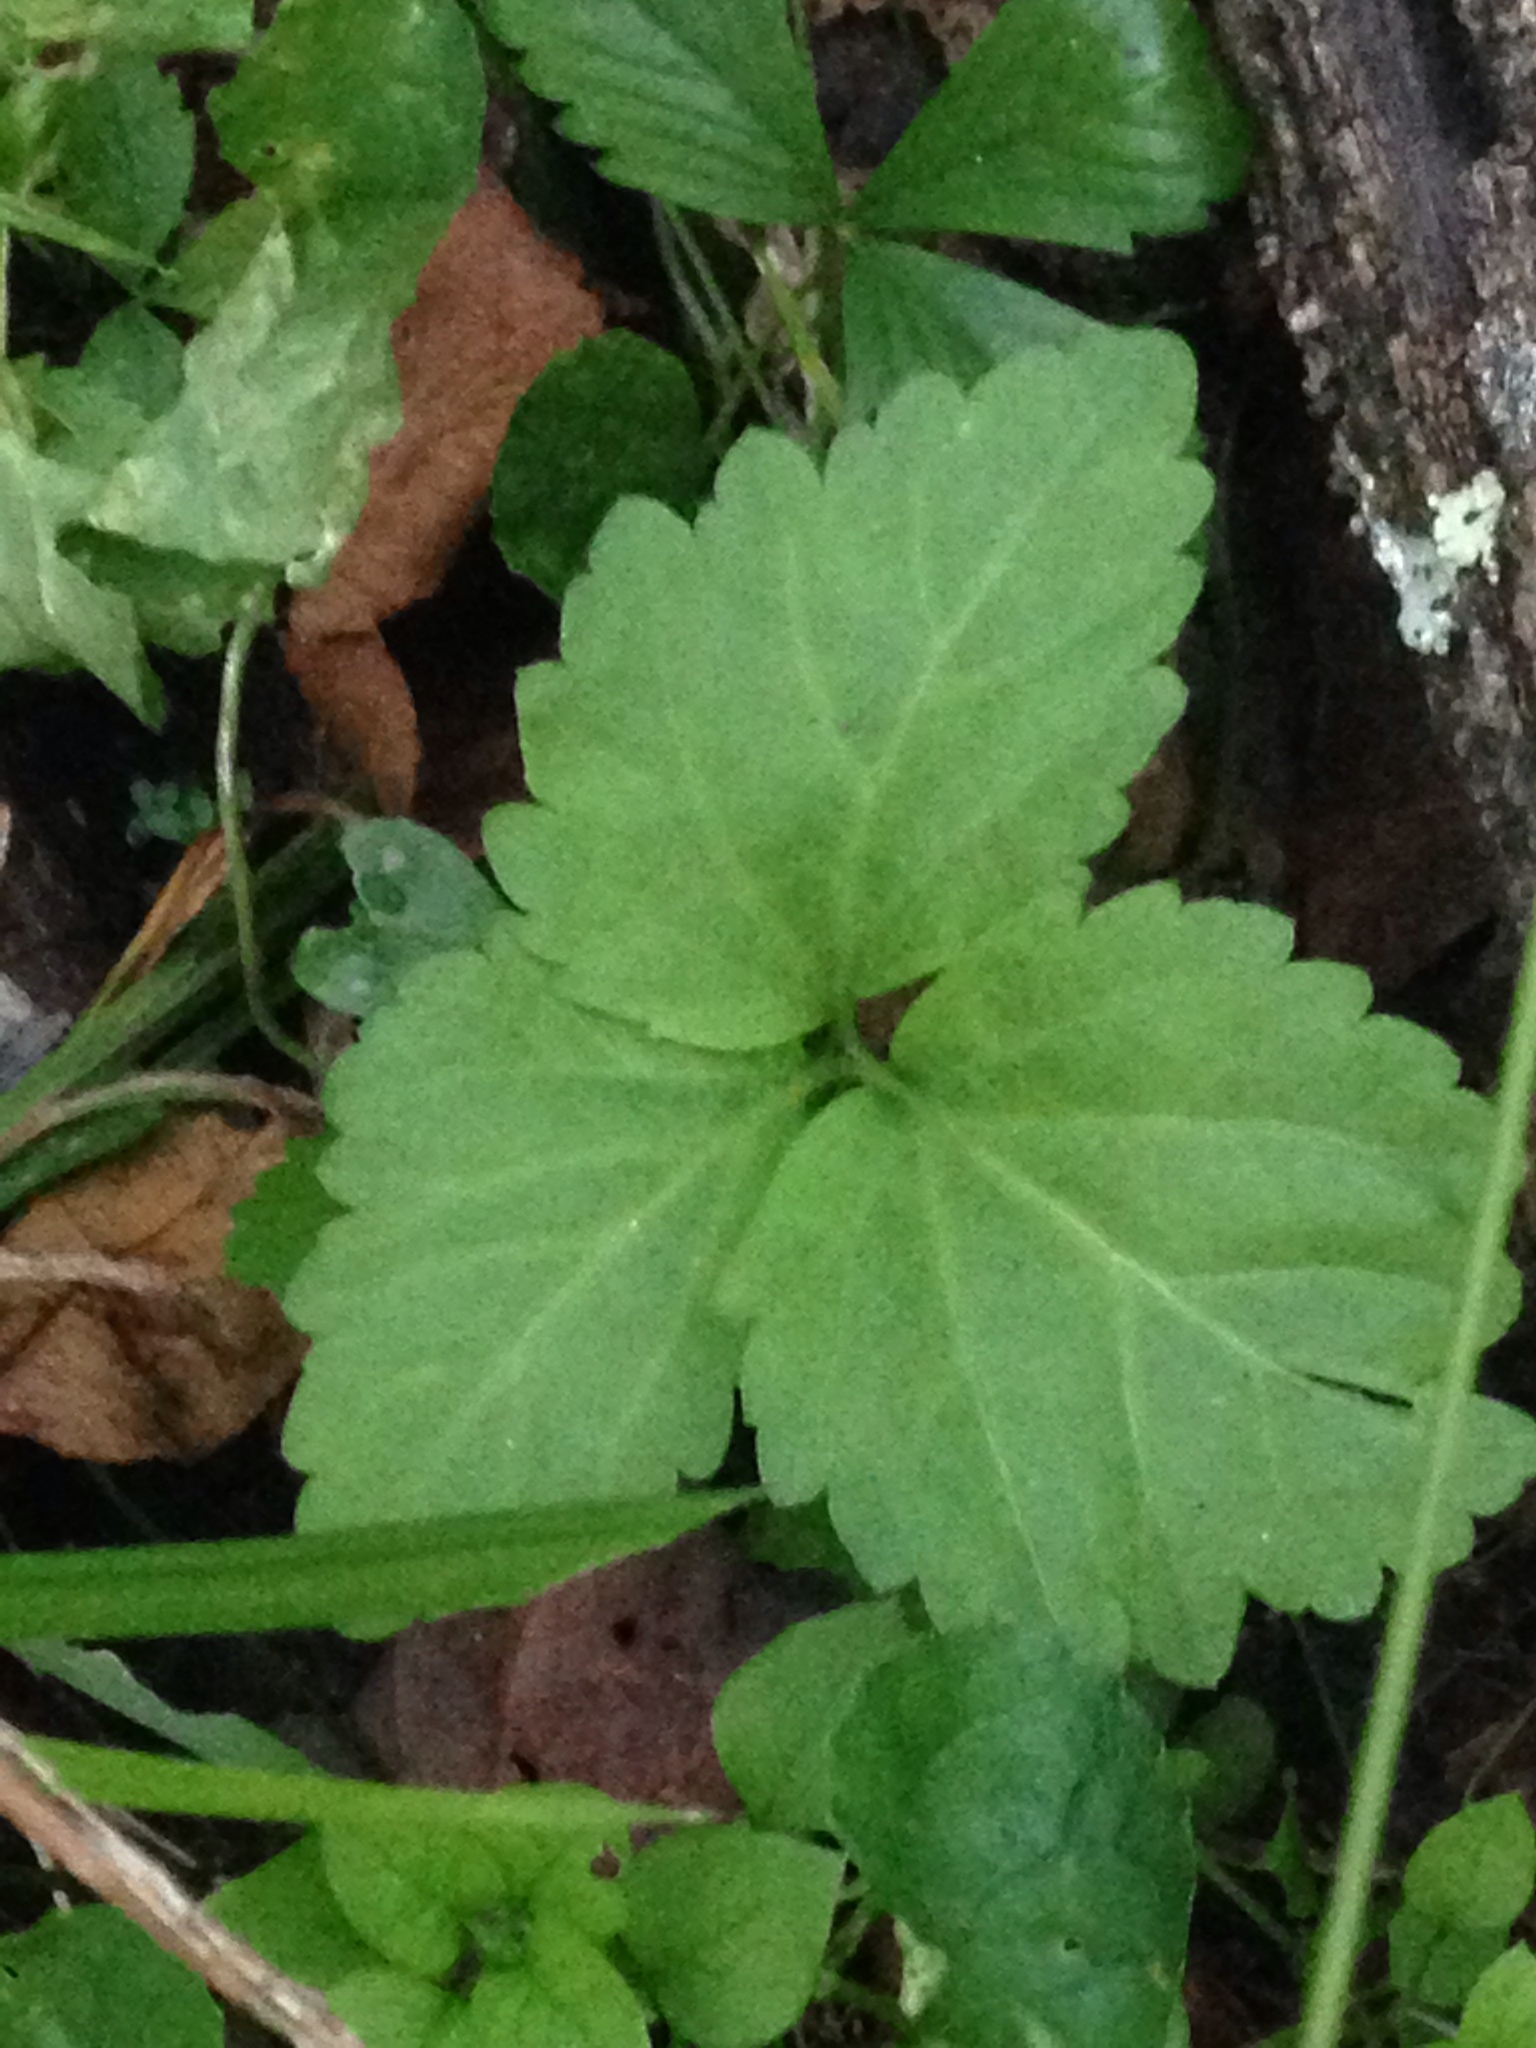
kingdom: Plantae
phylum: Tracheophyta
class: Magnoliopsida
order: Brassicales
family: Brassicaceae
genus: Cardamine
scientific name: Cardamine diphylla
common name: Broad-leaved toothwort
